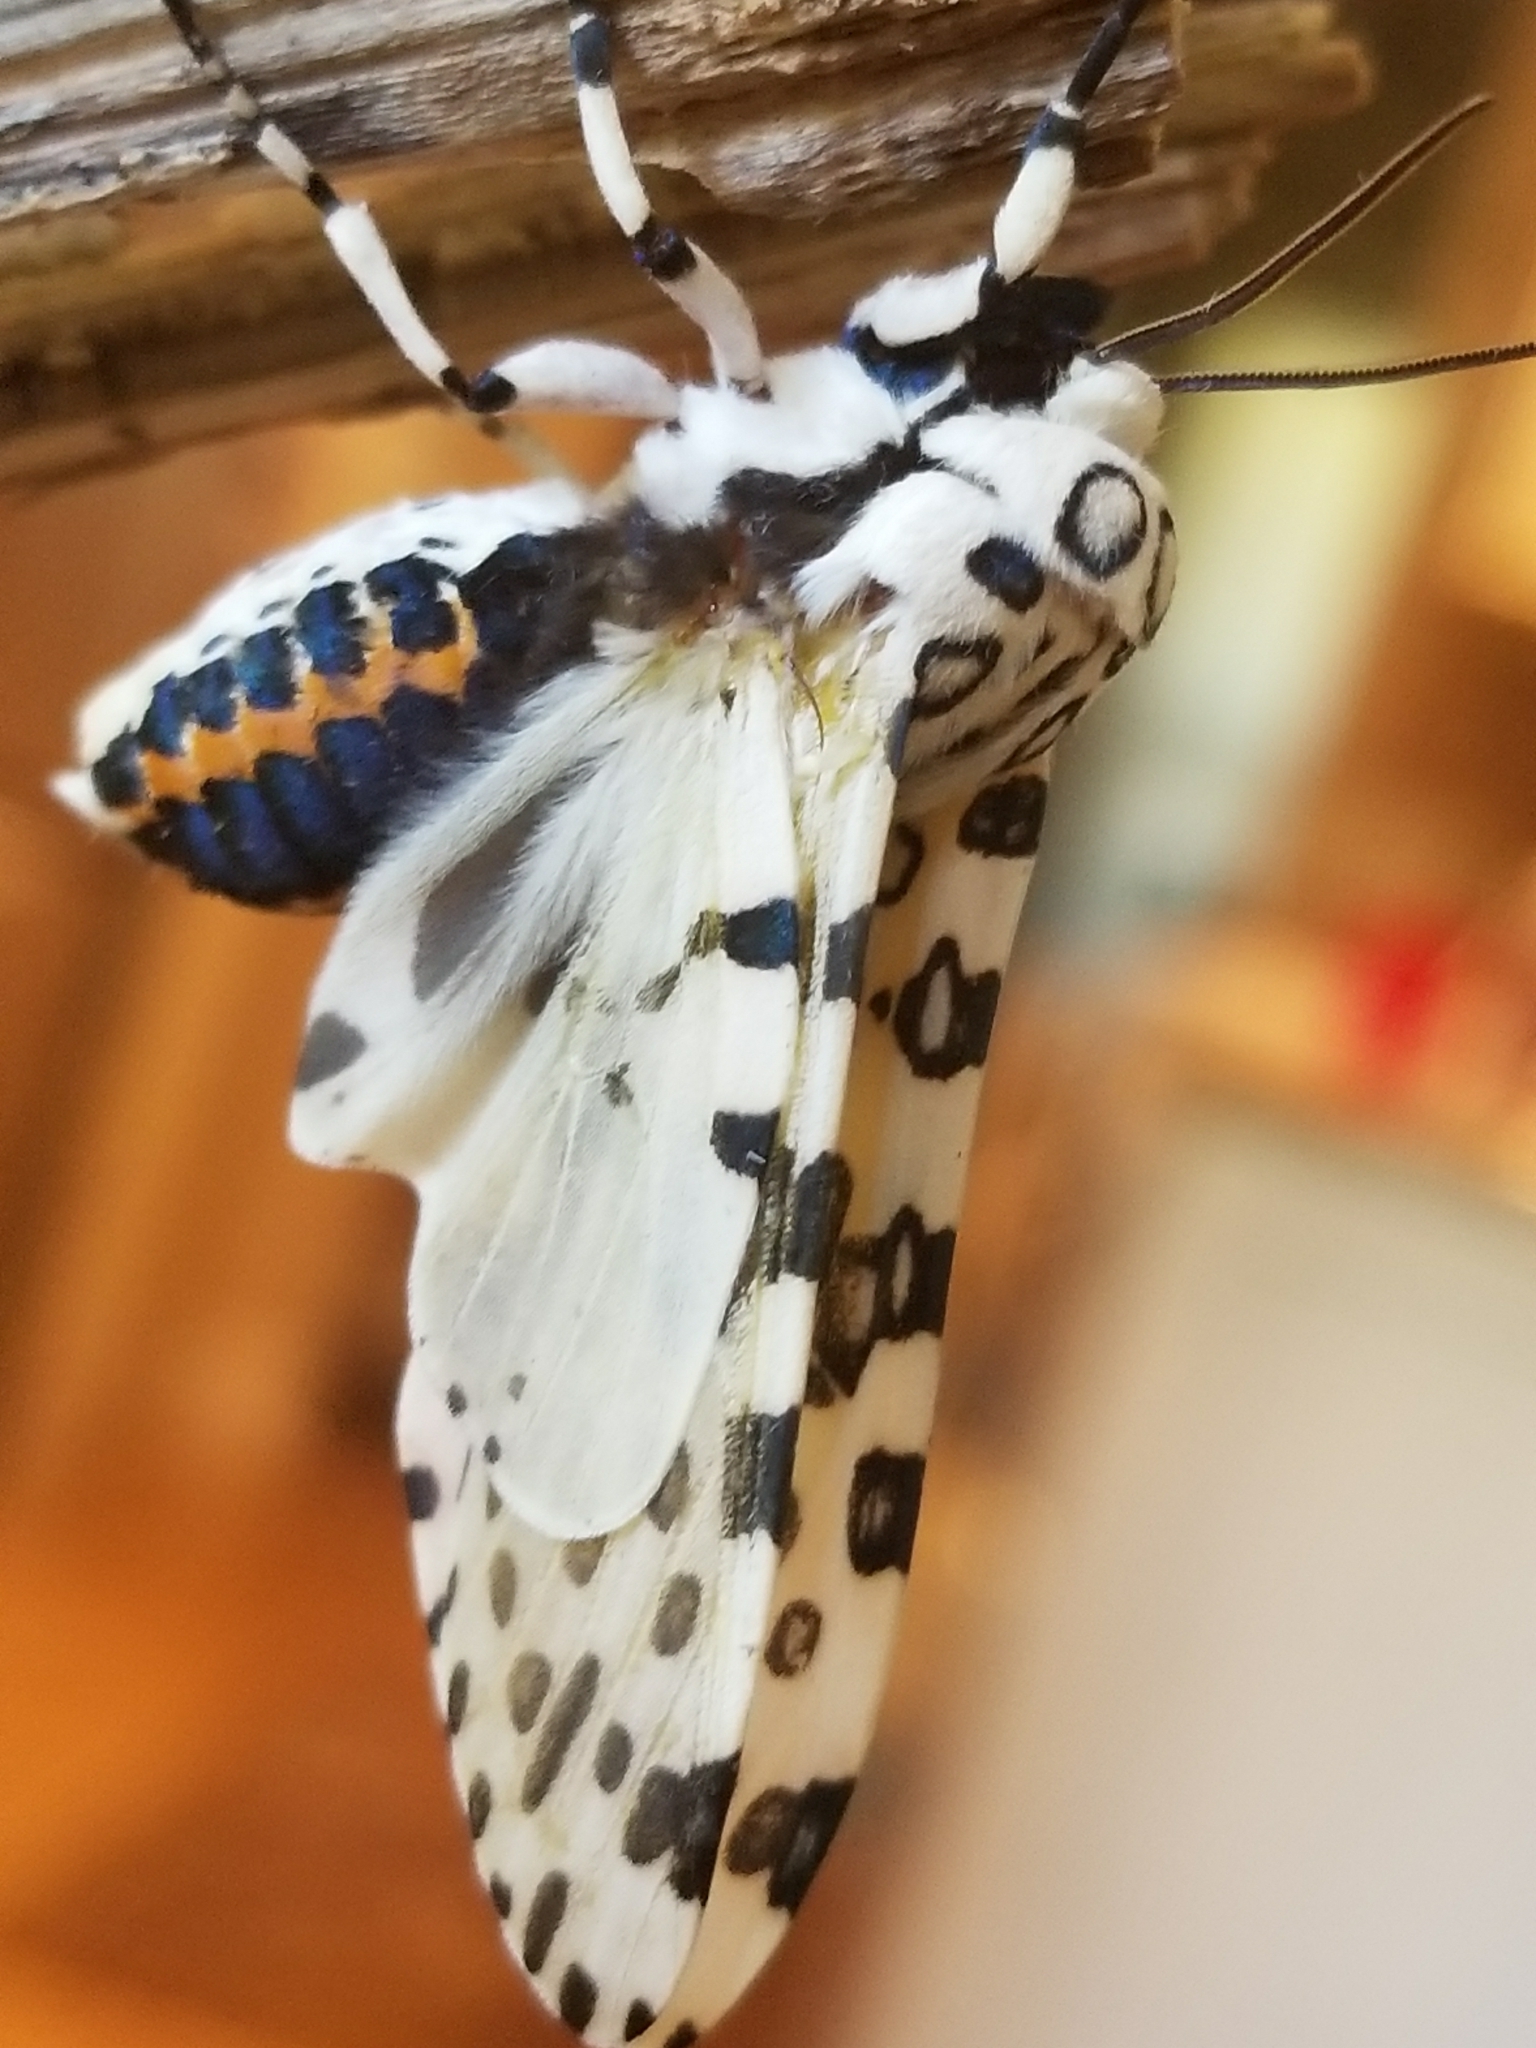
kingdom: Animalia
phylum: Arthropoda
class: Insecta
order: Lepidoptera
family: Erebidae
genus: Hypercompe
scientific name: Hypercompe scribonia
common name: Giant leopard moth
